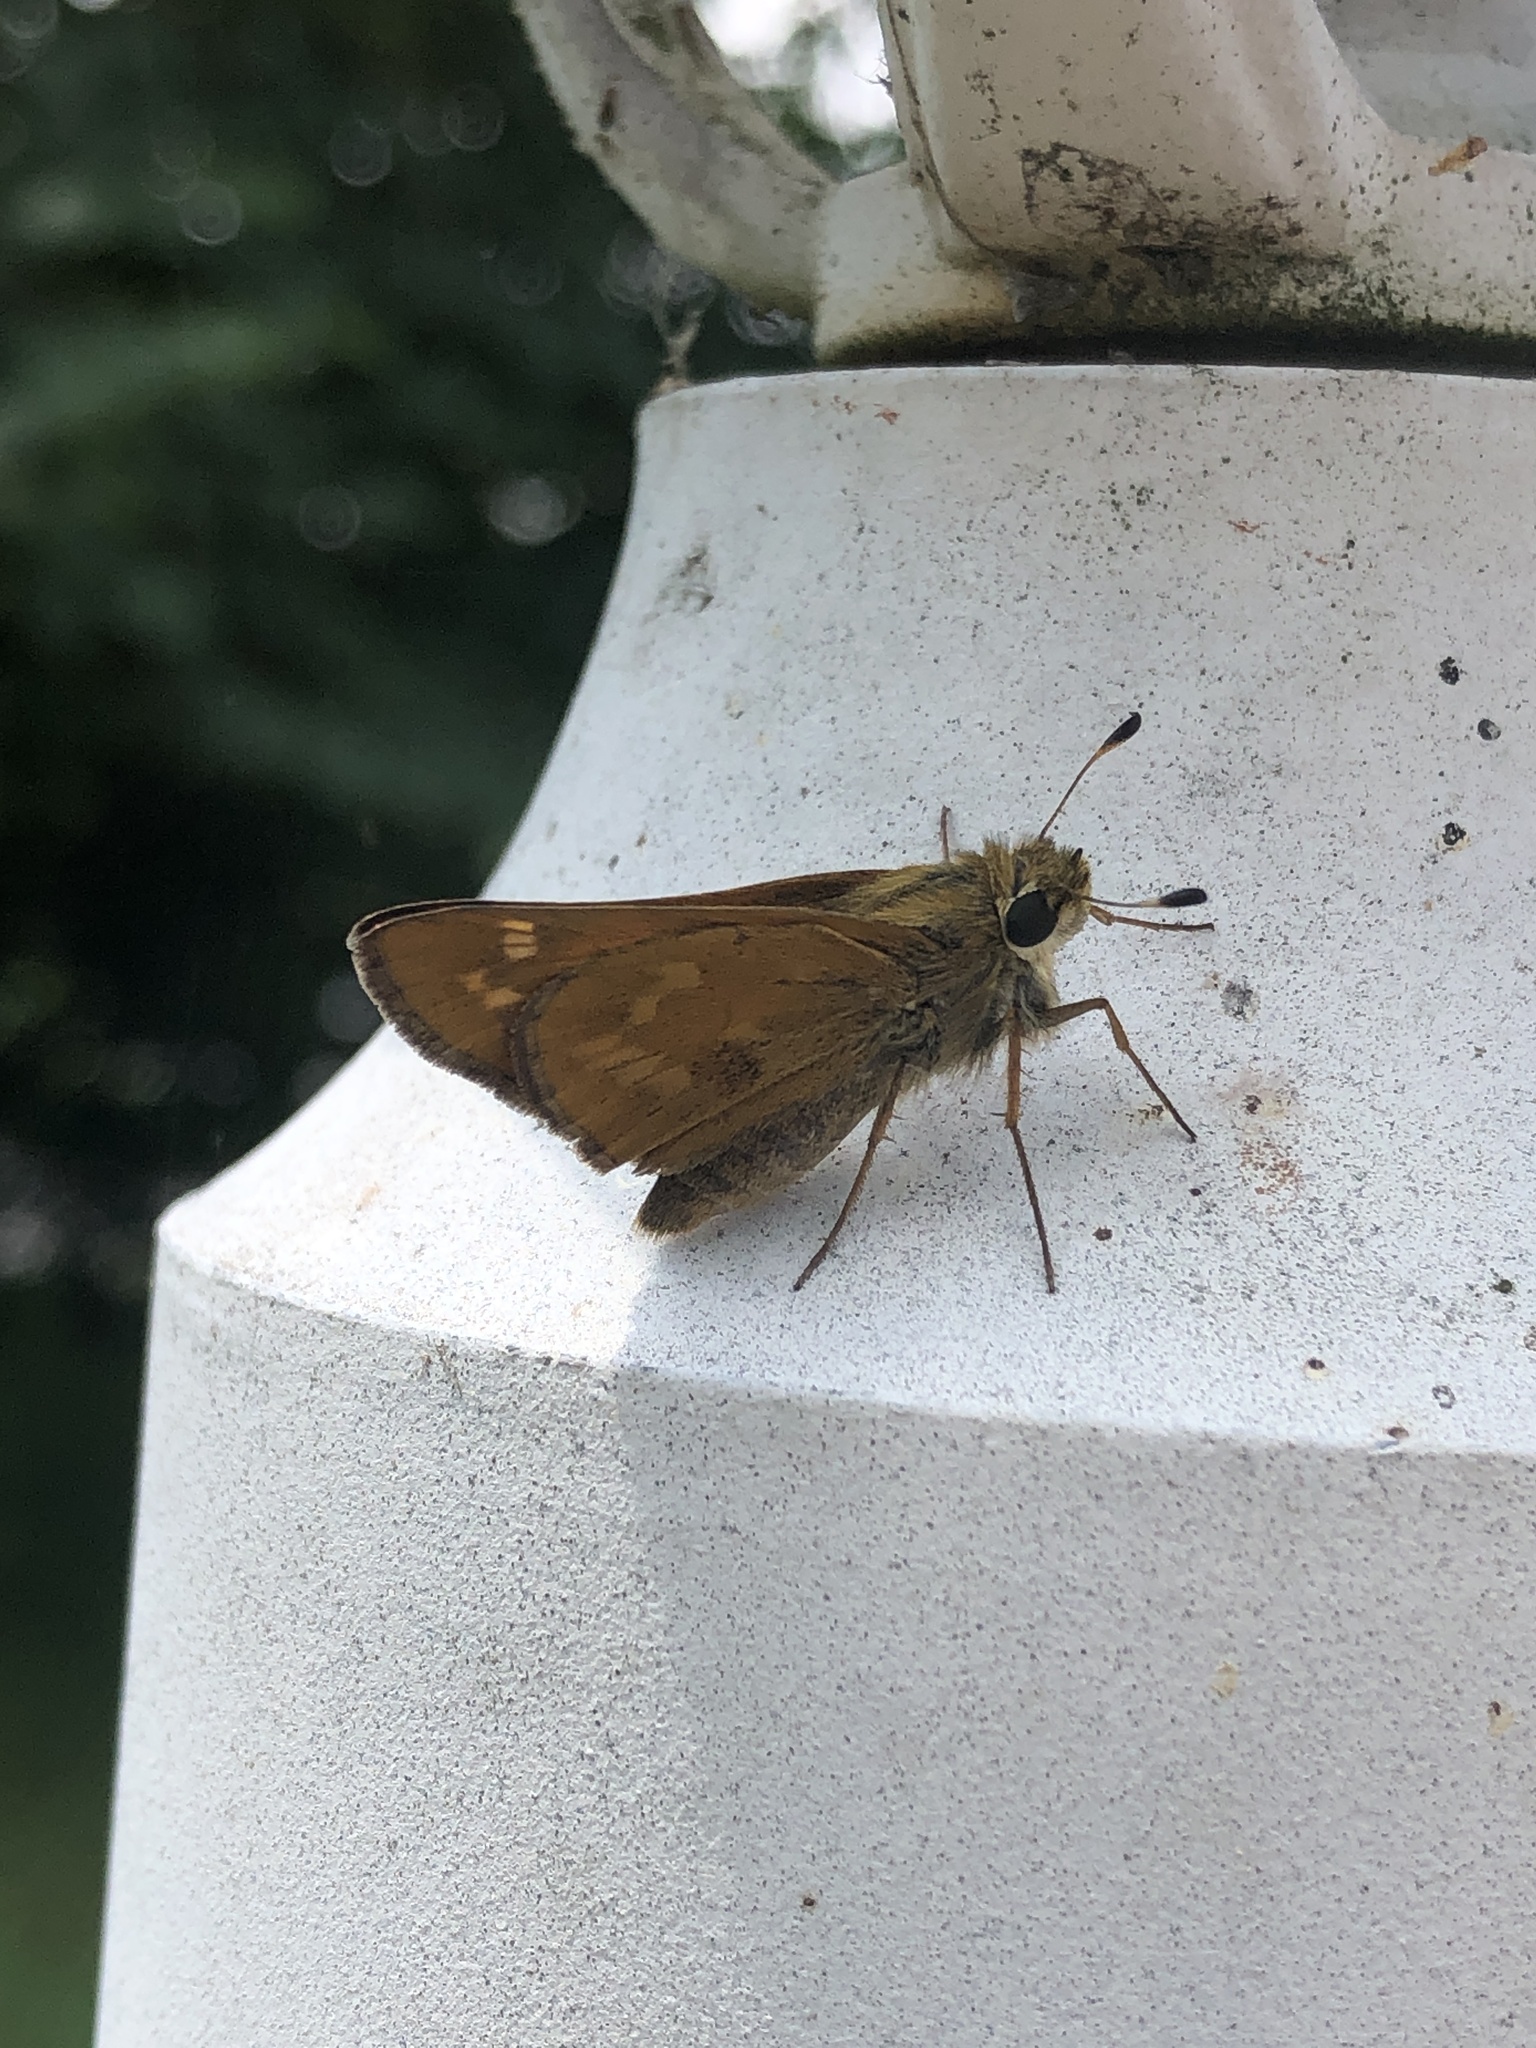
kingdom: Animalia
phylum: Arthropoda
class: Insecta
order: Lepidoptera
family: Hesperiidae
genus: Atalopedes
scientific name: Atalopedes
